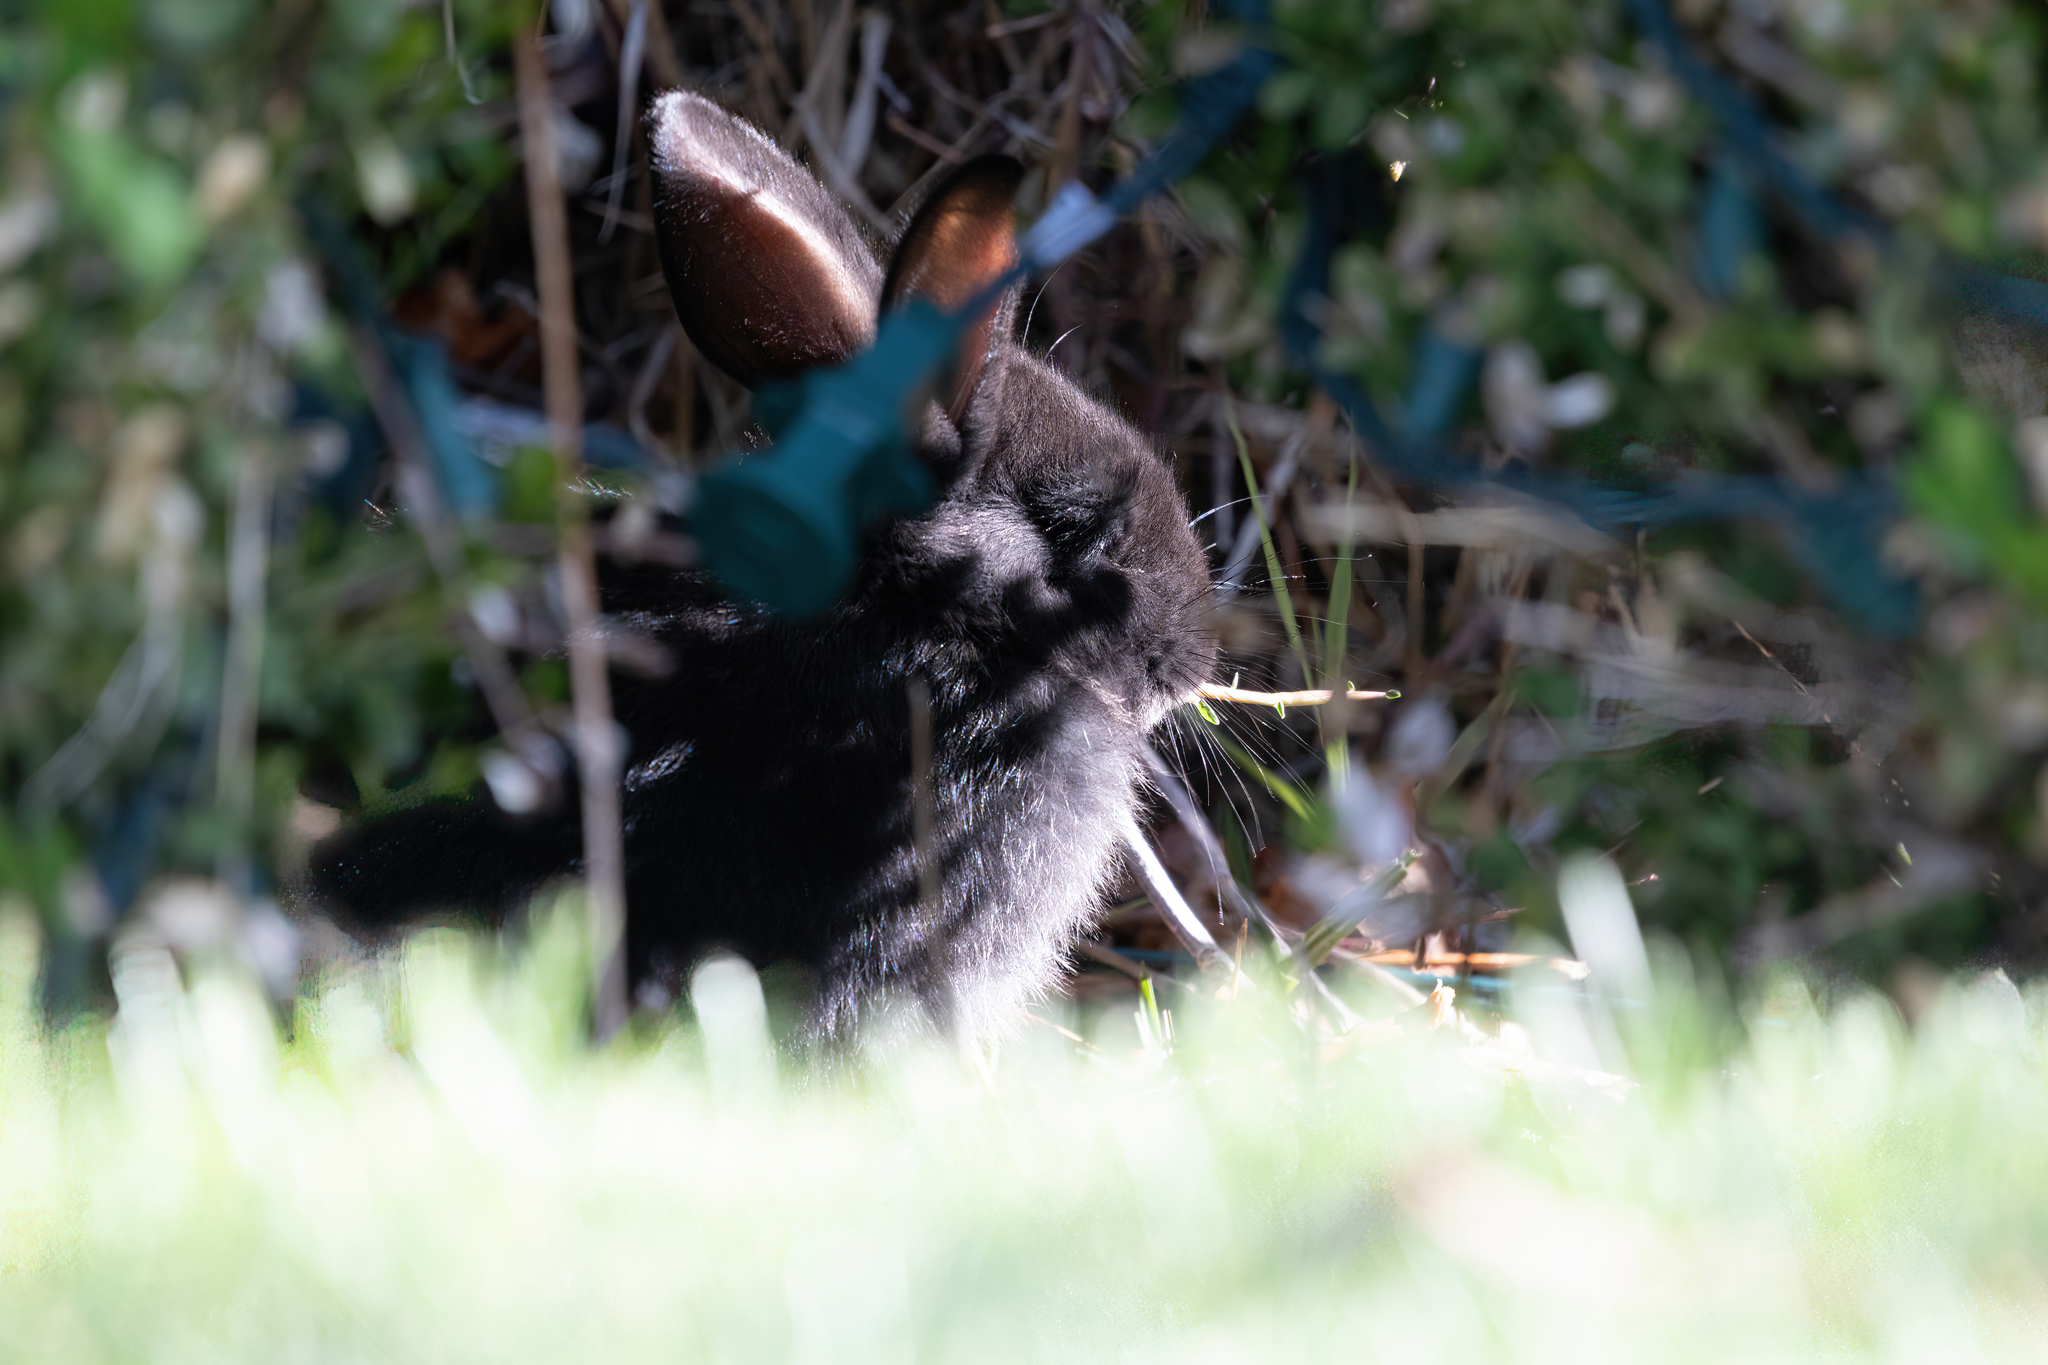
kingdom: Animalia
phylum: Chordata
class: Mammalia
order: Lagomorpha
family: Leporidae
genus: Oryctolagus
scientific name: Oryctolagus cuniculus
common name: European rabbit
